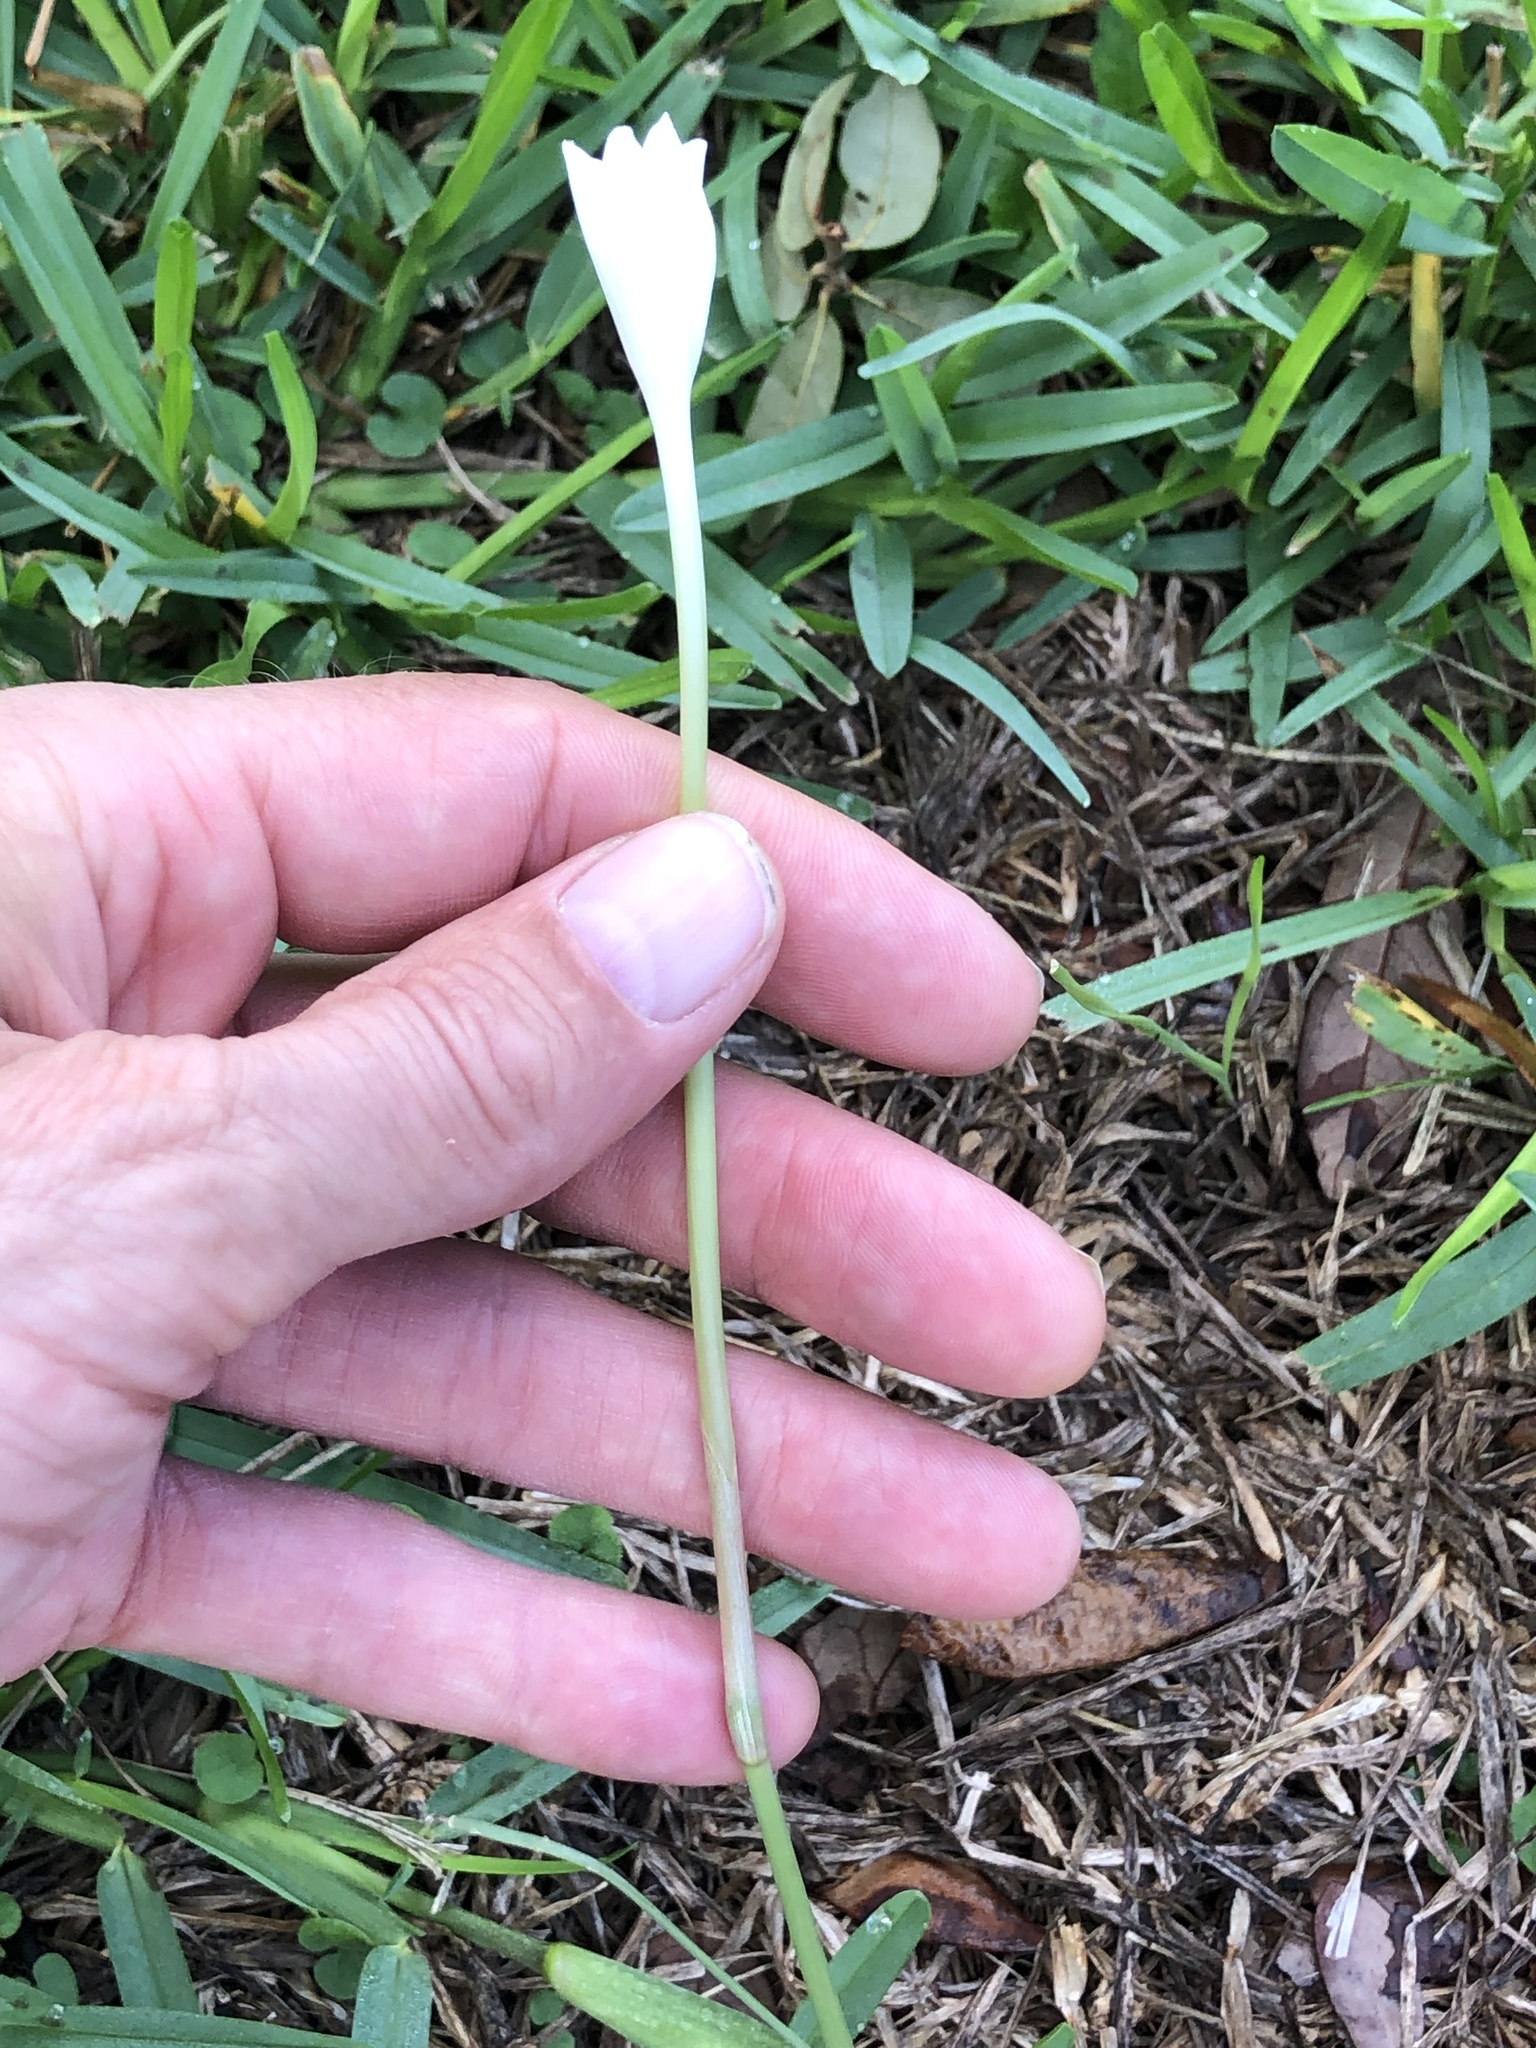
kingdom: Plantae
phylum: Tracheophyta
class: Liliopsida
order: Asparagales
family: Amaryllidaceae
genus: Zephyranthes
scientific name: Zephyranthes chlorosolen
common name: Evening rain-lily
